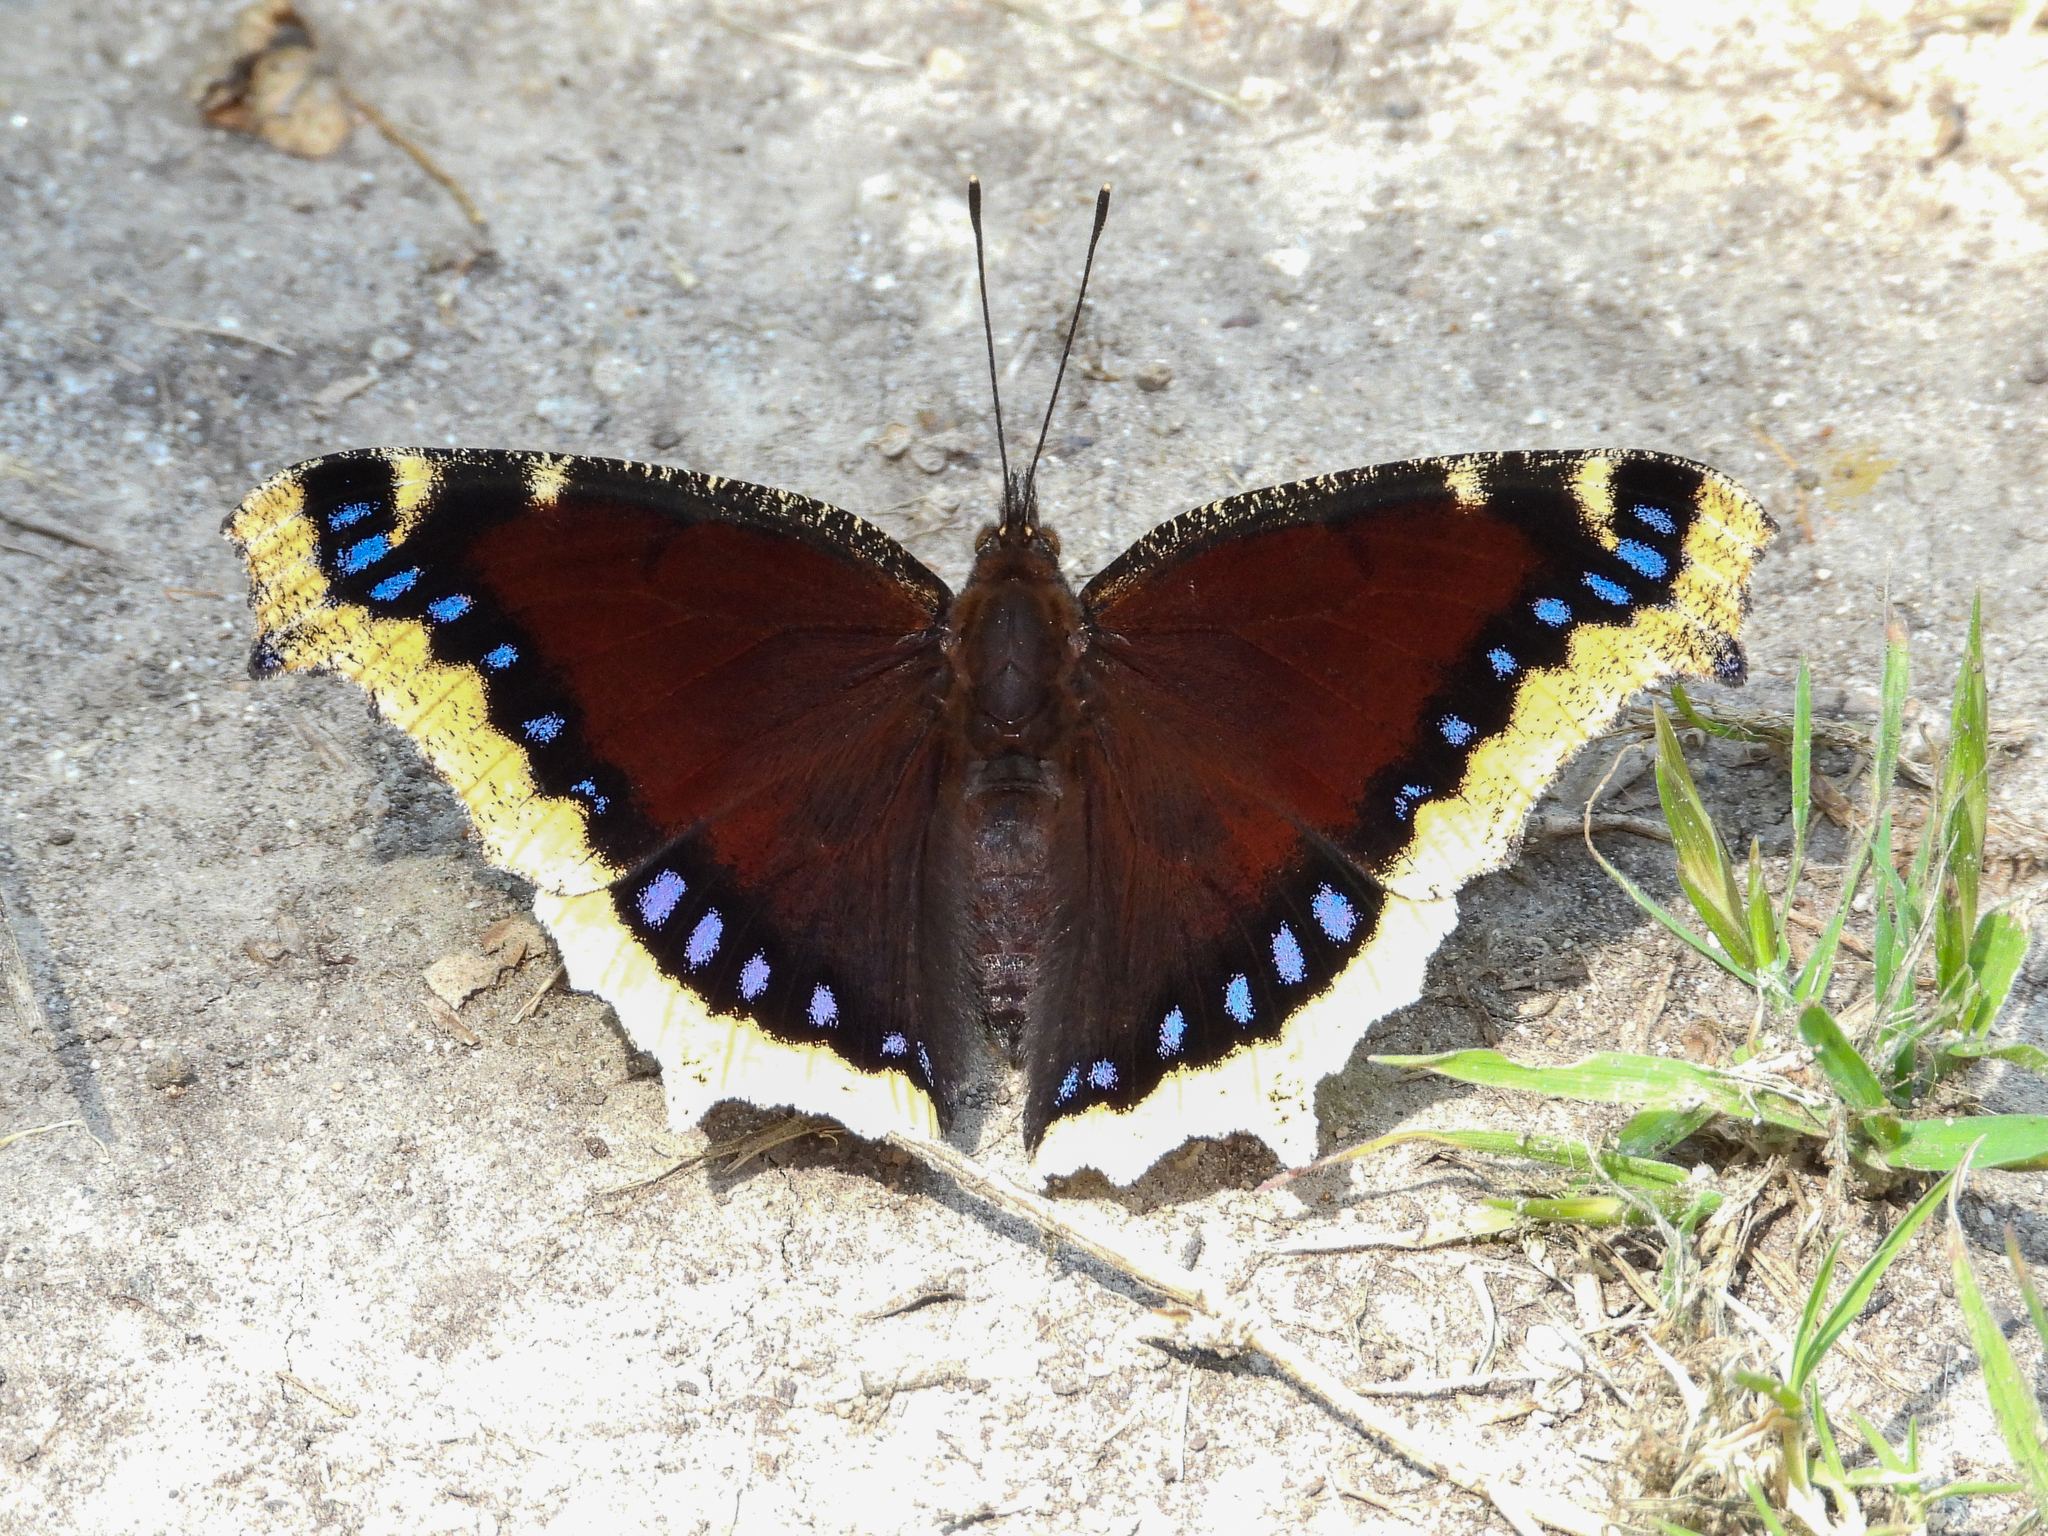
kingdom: Animalia
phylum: Arthropoda
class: Insecta
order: Lepidoptera
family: Nymphalidae
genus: Nymphalis
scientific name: Nymphalis antiopa
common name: Camberwell beauty
